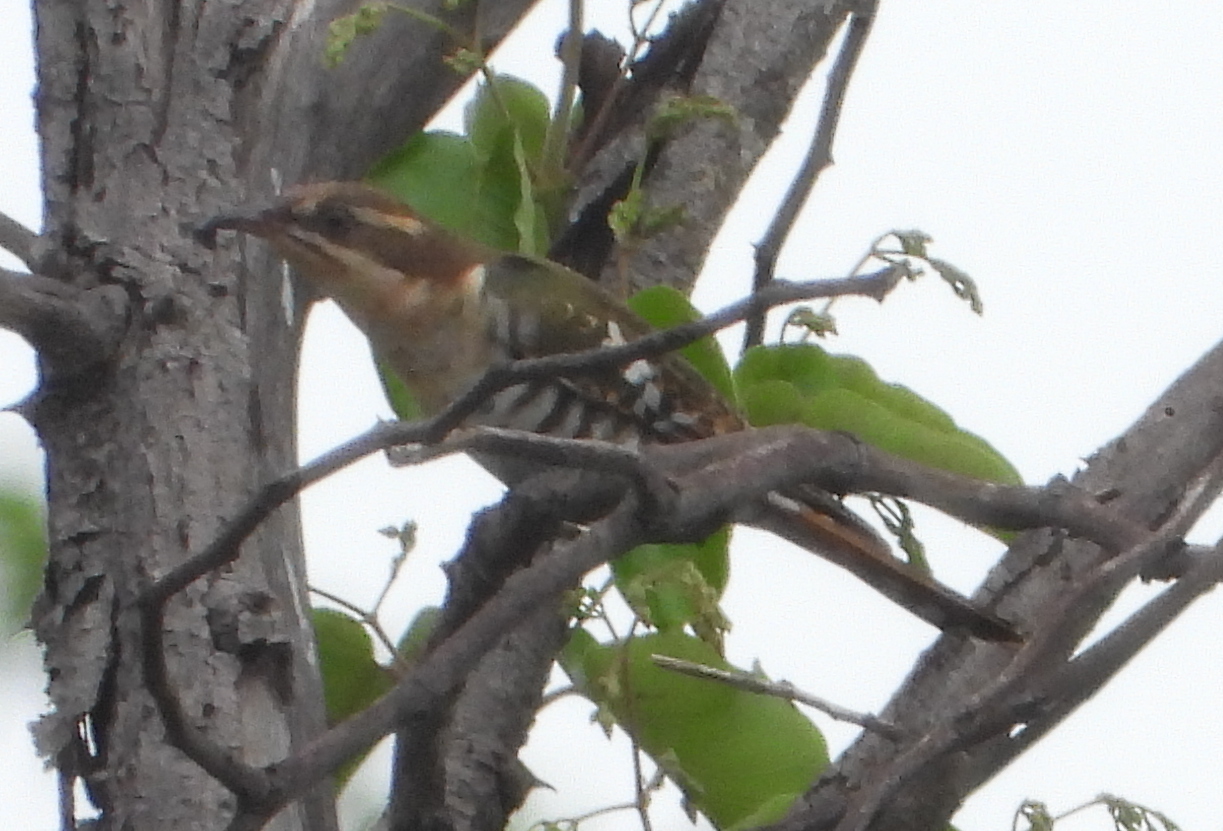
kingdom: Animalia
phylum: Chordata
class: Aves
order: Cuculiformes
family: Cuculidae
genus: Chrysococcyx
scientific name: Chrysococcyx caprius
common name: Diederik cuckoo
